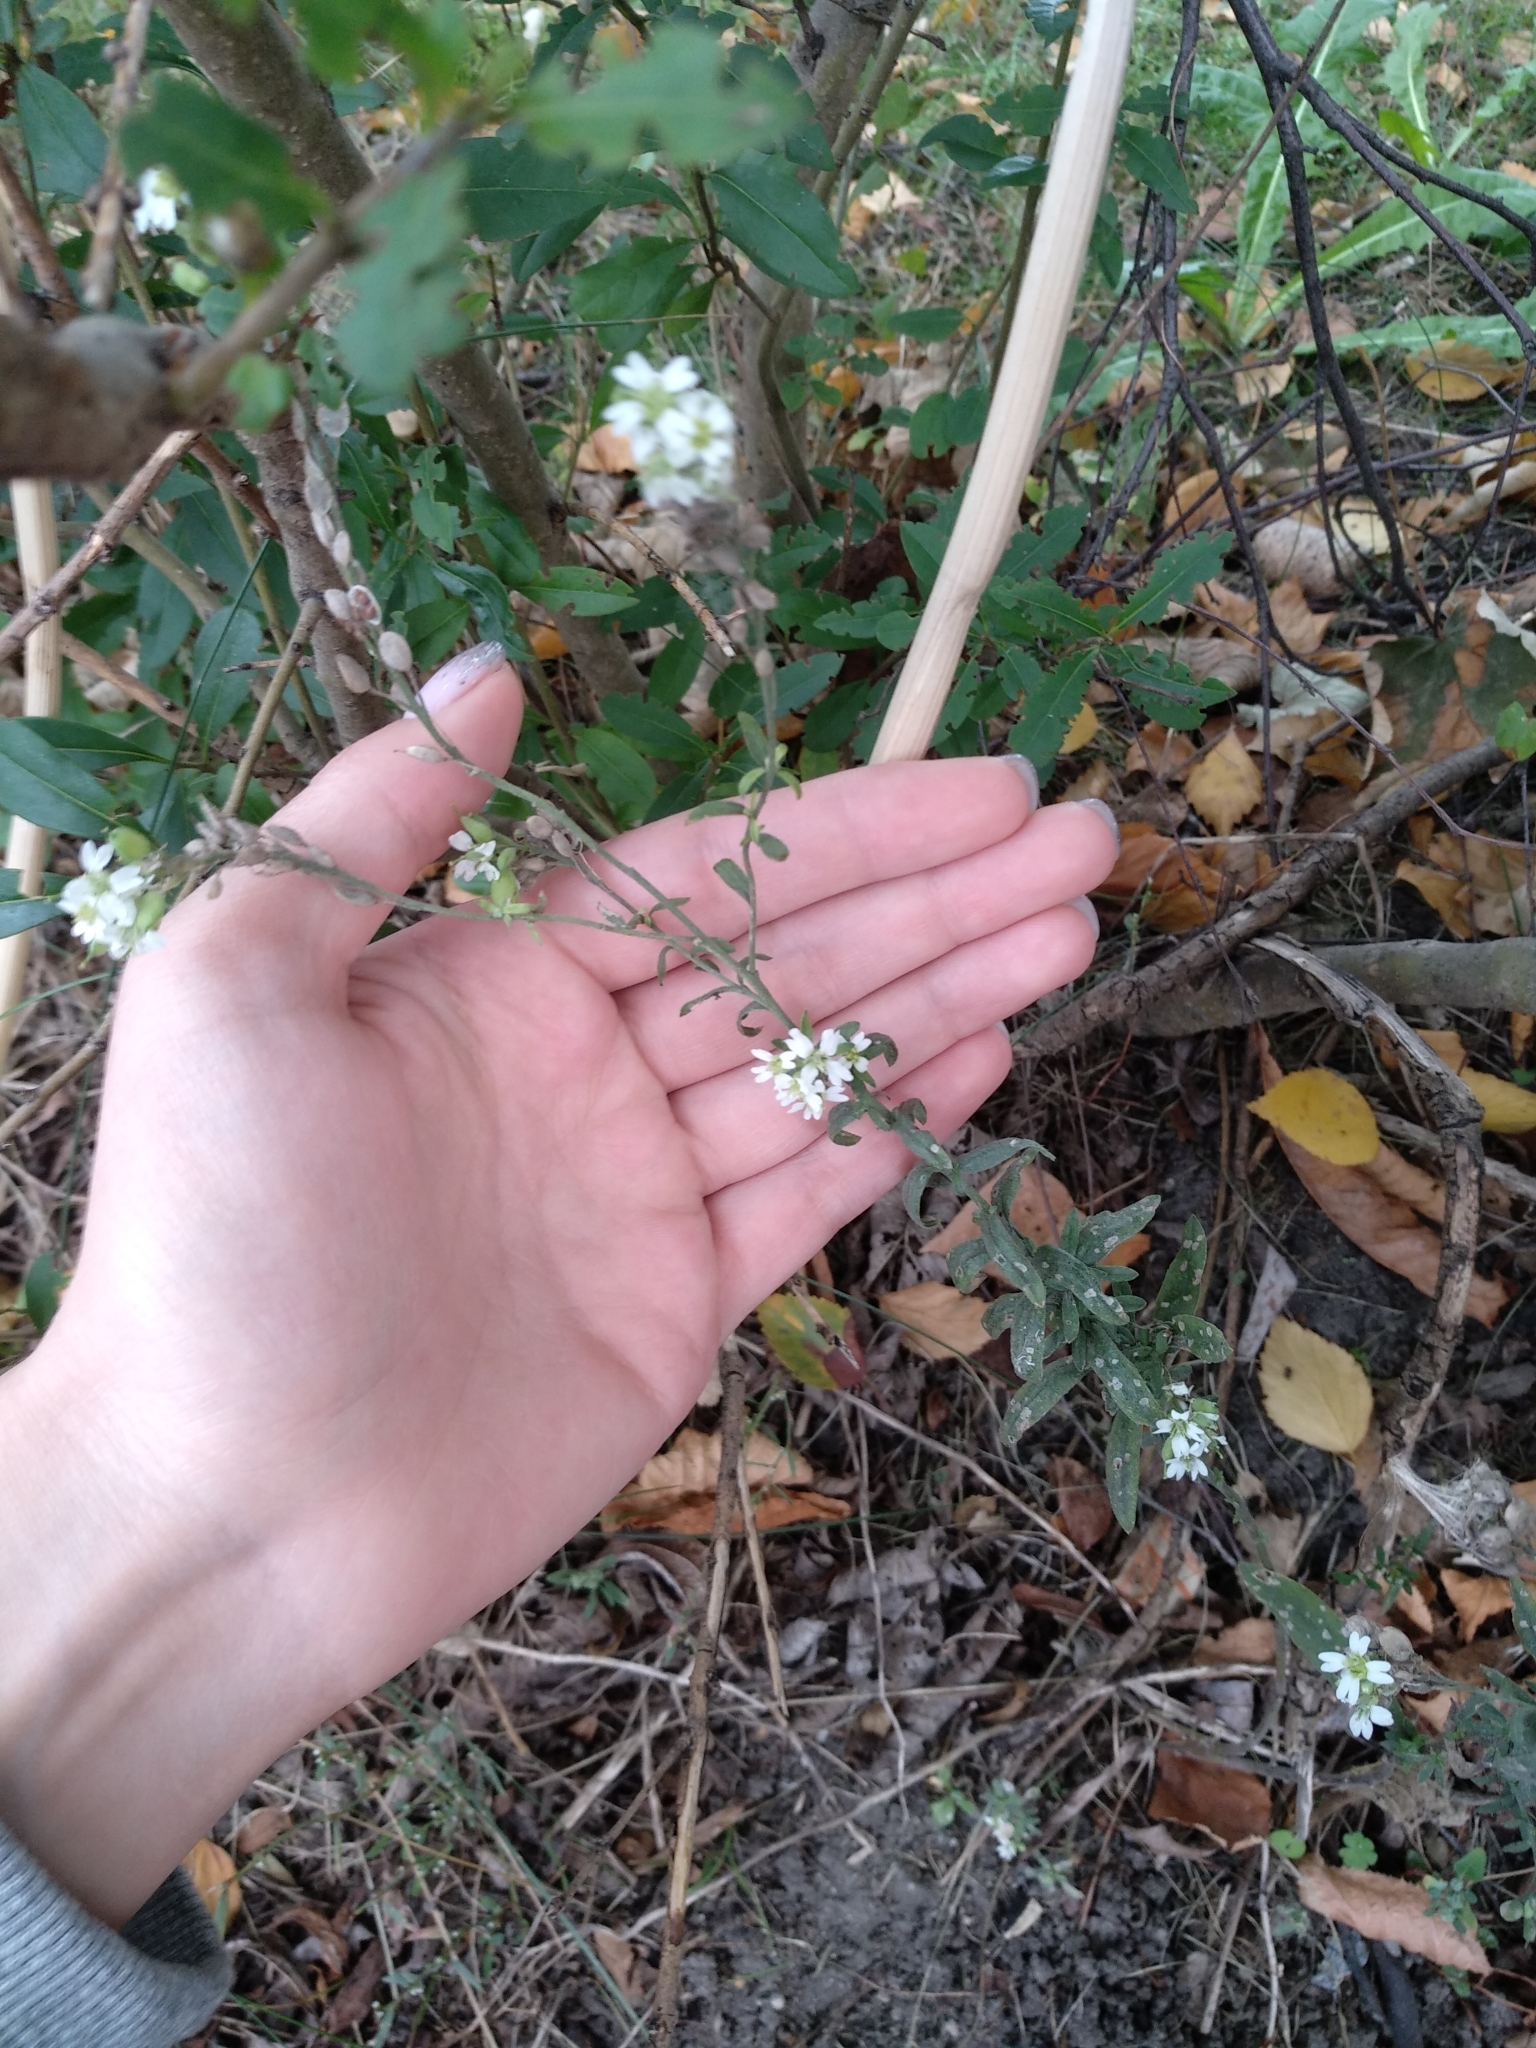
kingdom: Plantae
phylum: Tracheophyta
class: Magnoliopsida
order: Brassicales
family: Brassicaceae
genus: Berteroa
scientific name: Berteroa incana
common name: Hoary alison
